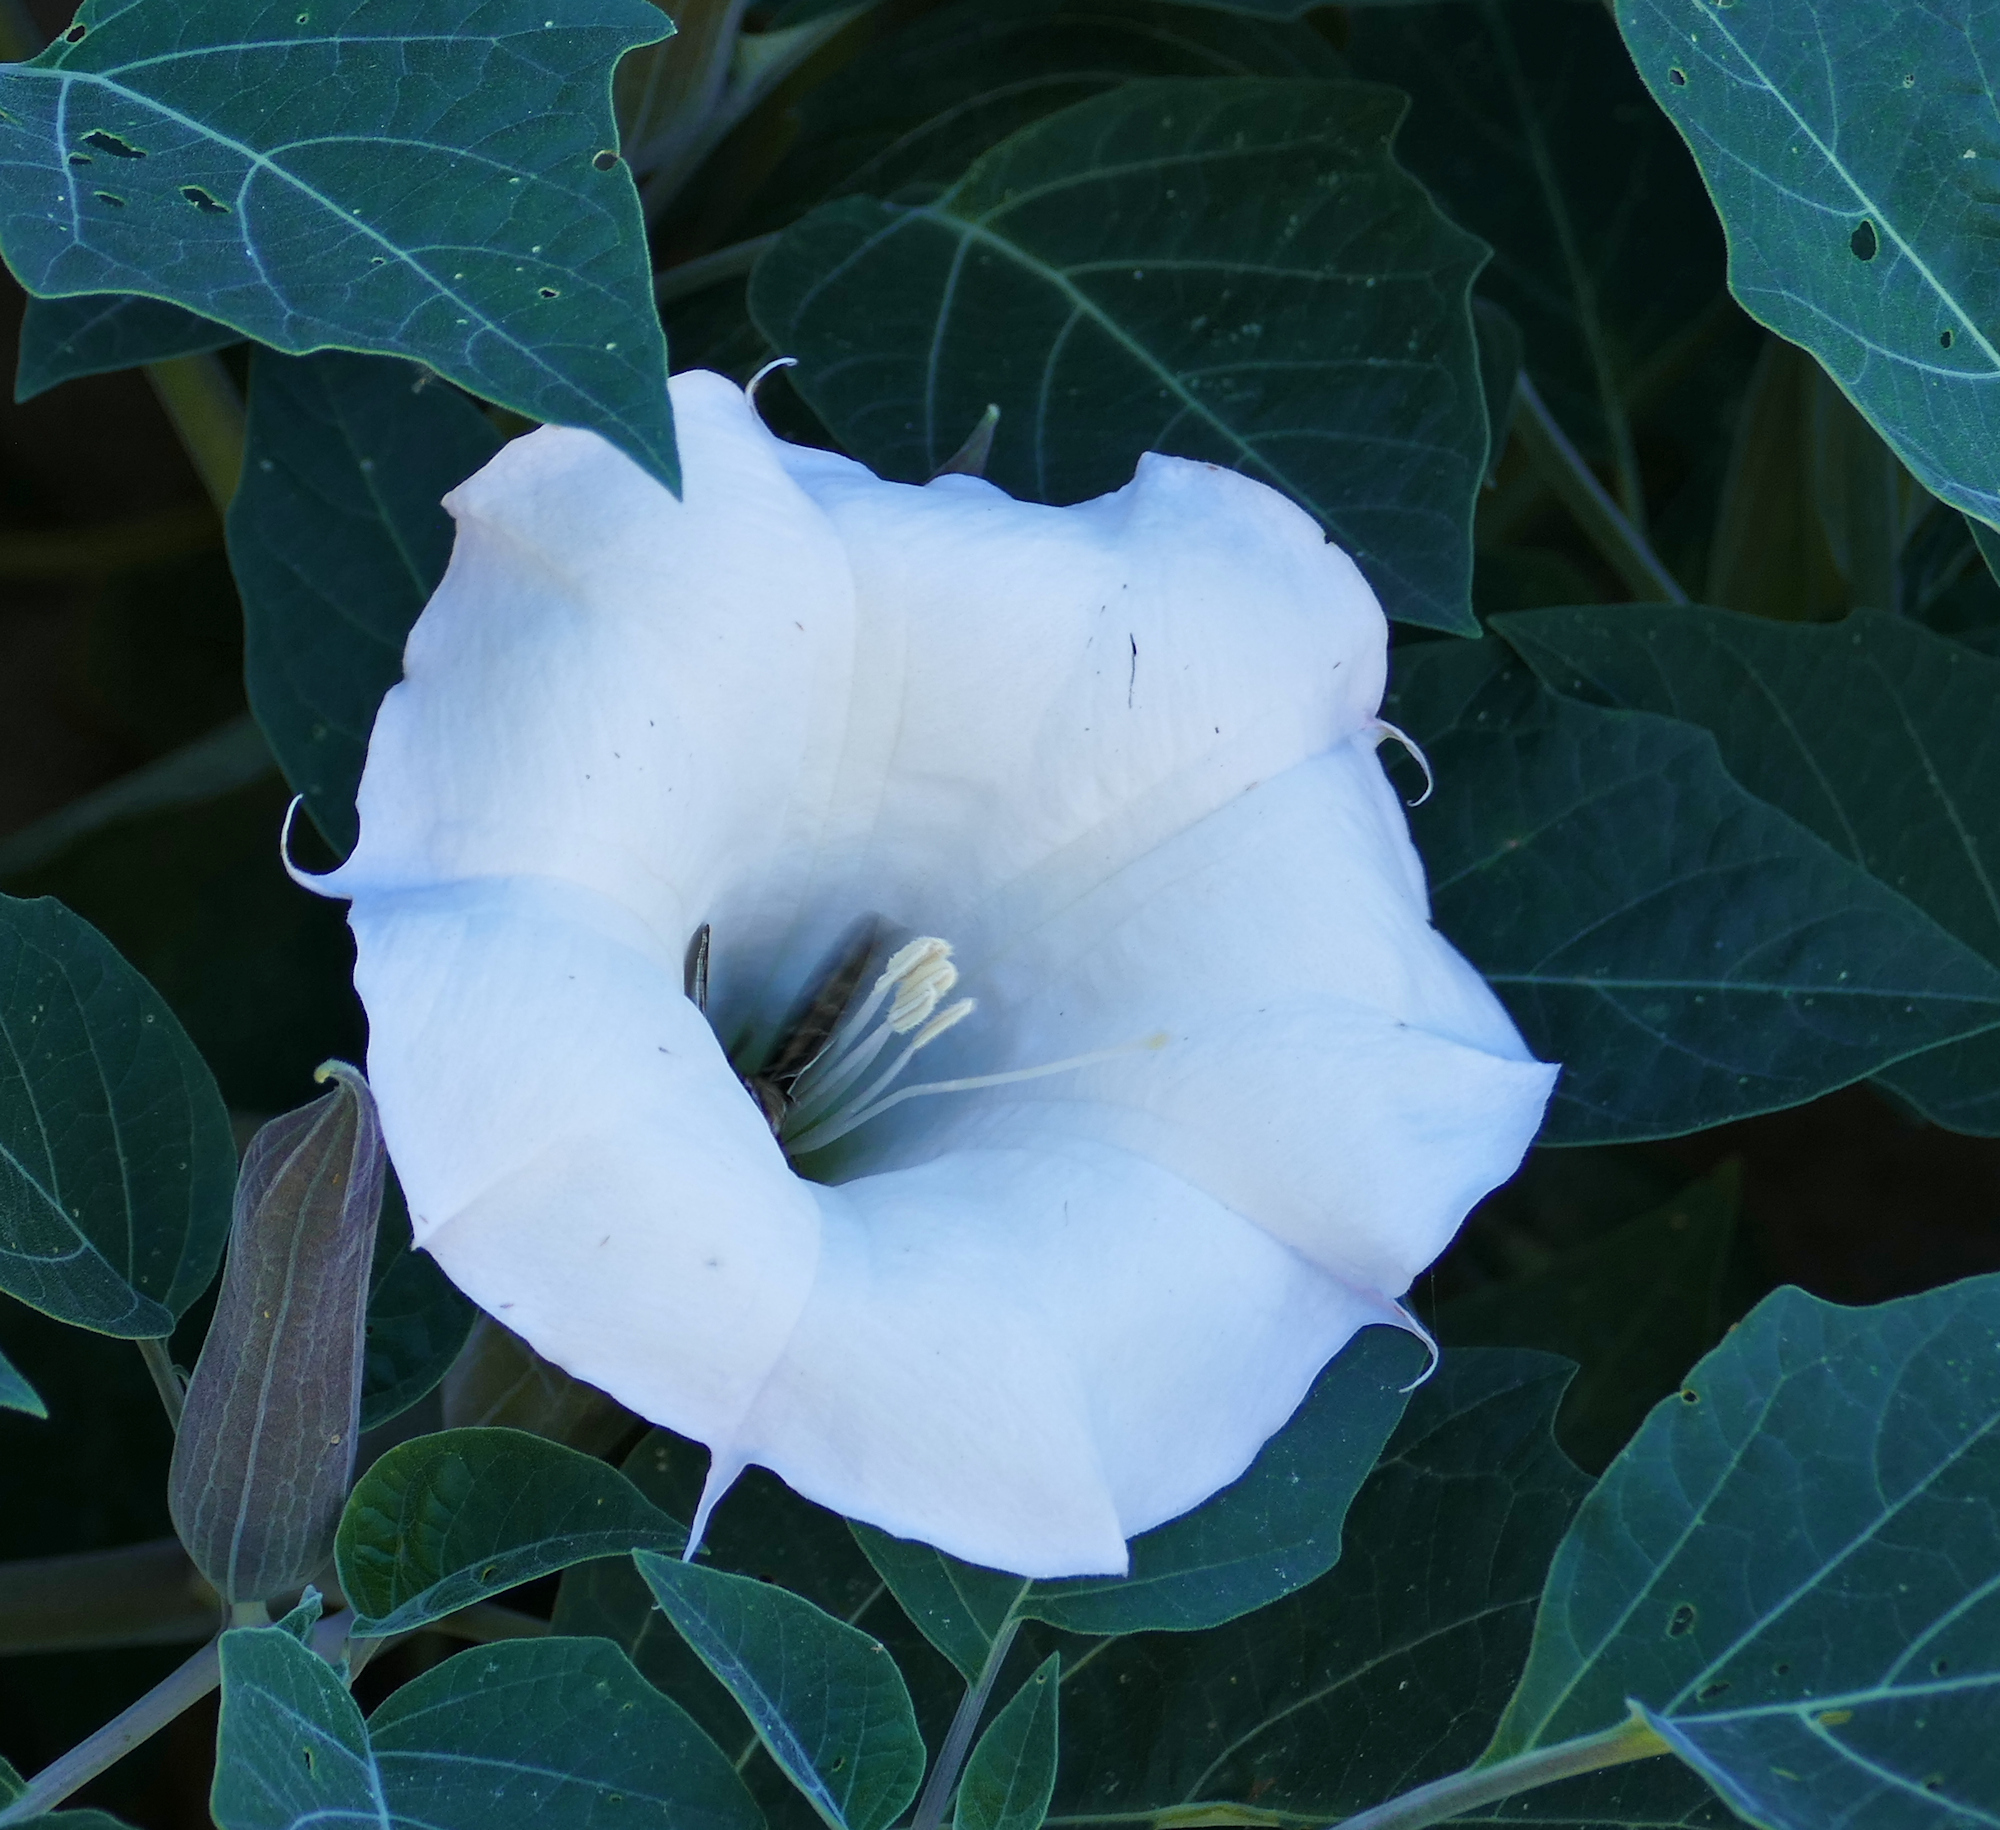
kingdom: Animalia
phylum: Arthropoda
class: Insecta
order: Lepidoptera
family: Sphingidae
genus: Hyles
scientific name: Hyles lineata
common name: White-lined sphinx
